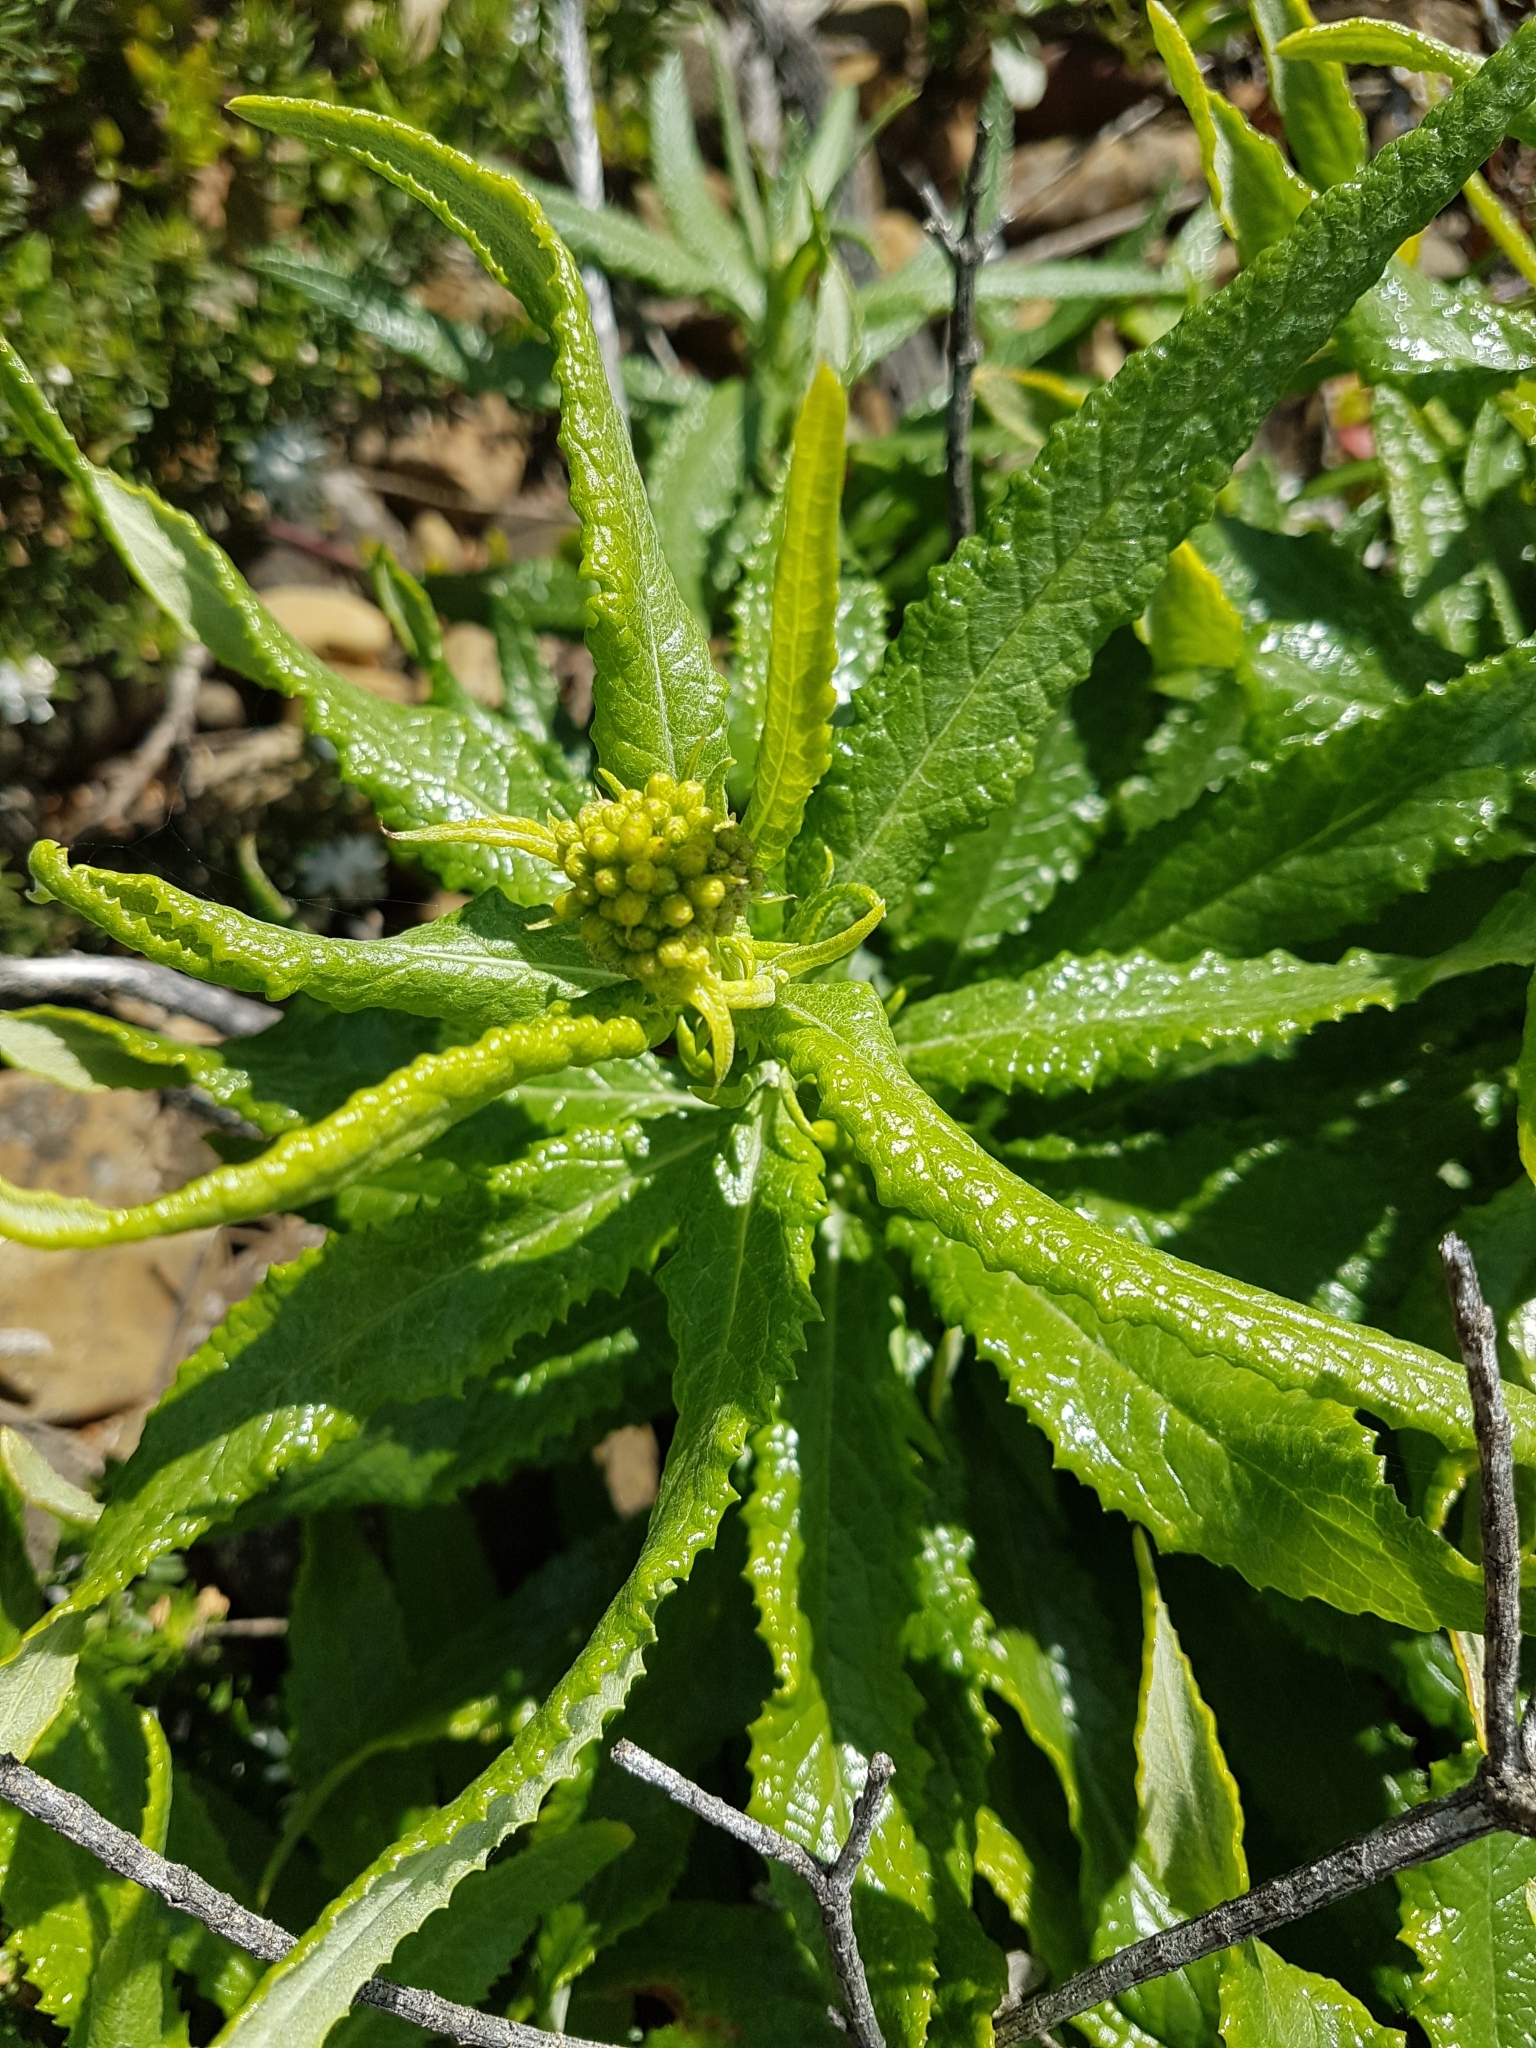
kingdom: Plantae
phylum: Tracheophyta
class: Magnoliopsida
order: Asterales
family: Asteraceae
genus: Senecio
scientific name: Senecio linearifolius
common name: Fireweed groundsel
